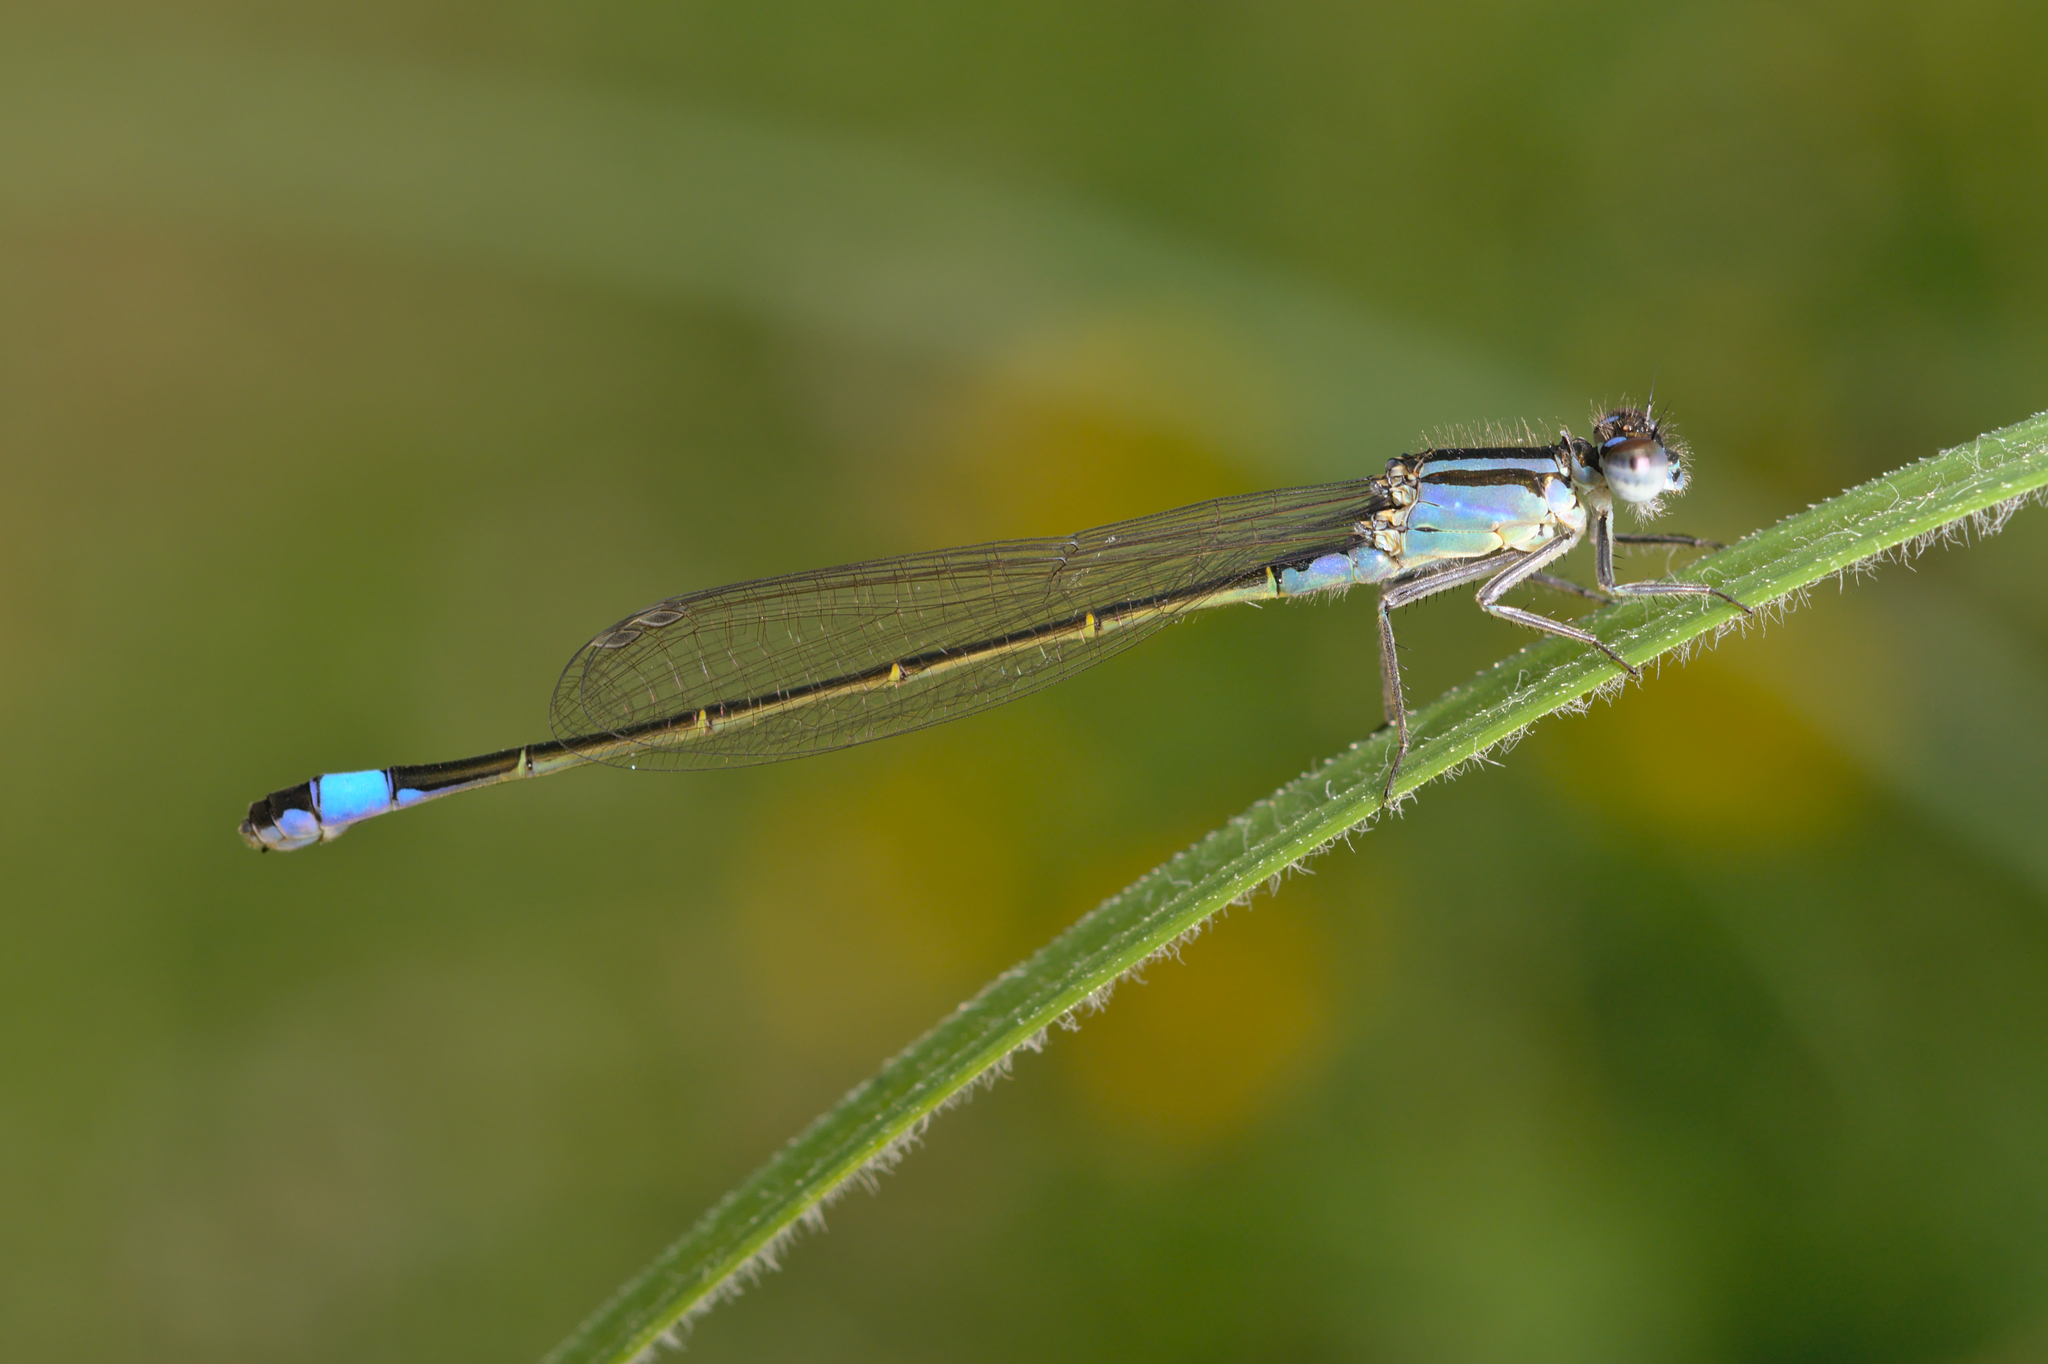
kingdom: Animalia
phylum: Arthropoda
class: Insecta
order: Odonata
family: Coenagrionidae
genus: Ischnura
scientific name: Ischnura elegans
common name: Blue-tailed damselfly
